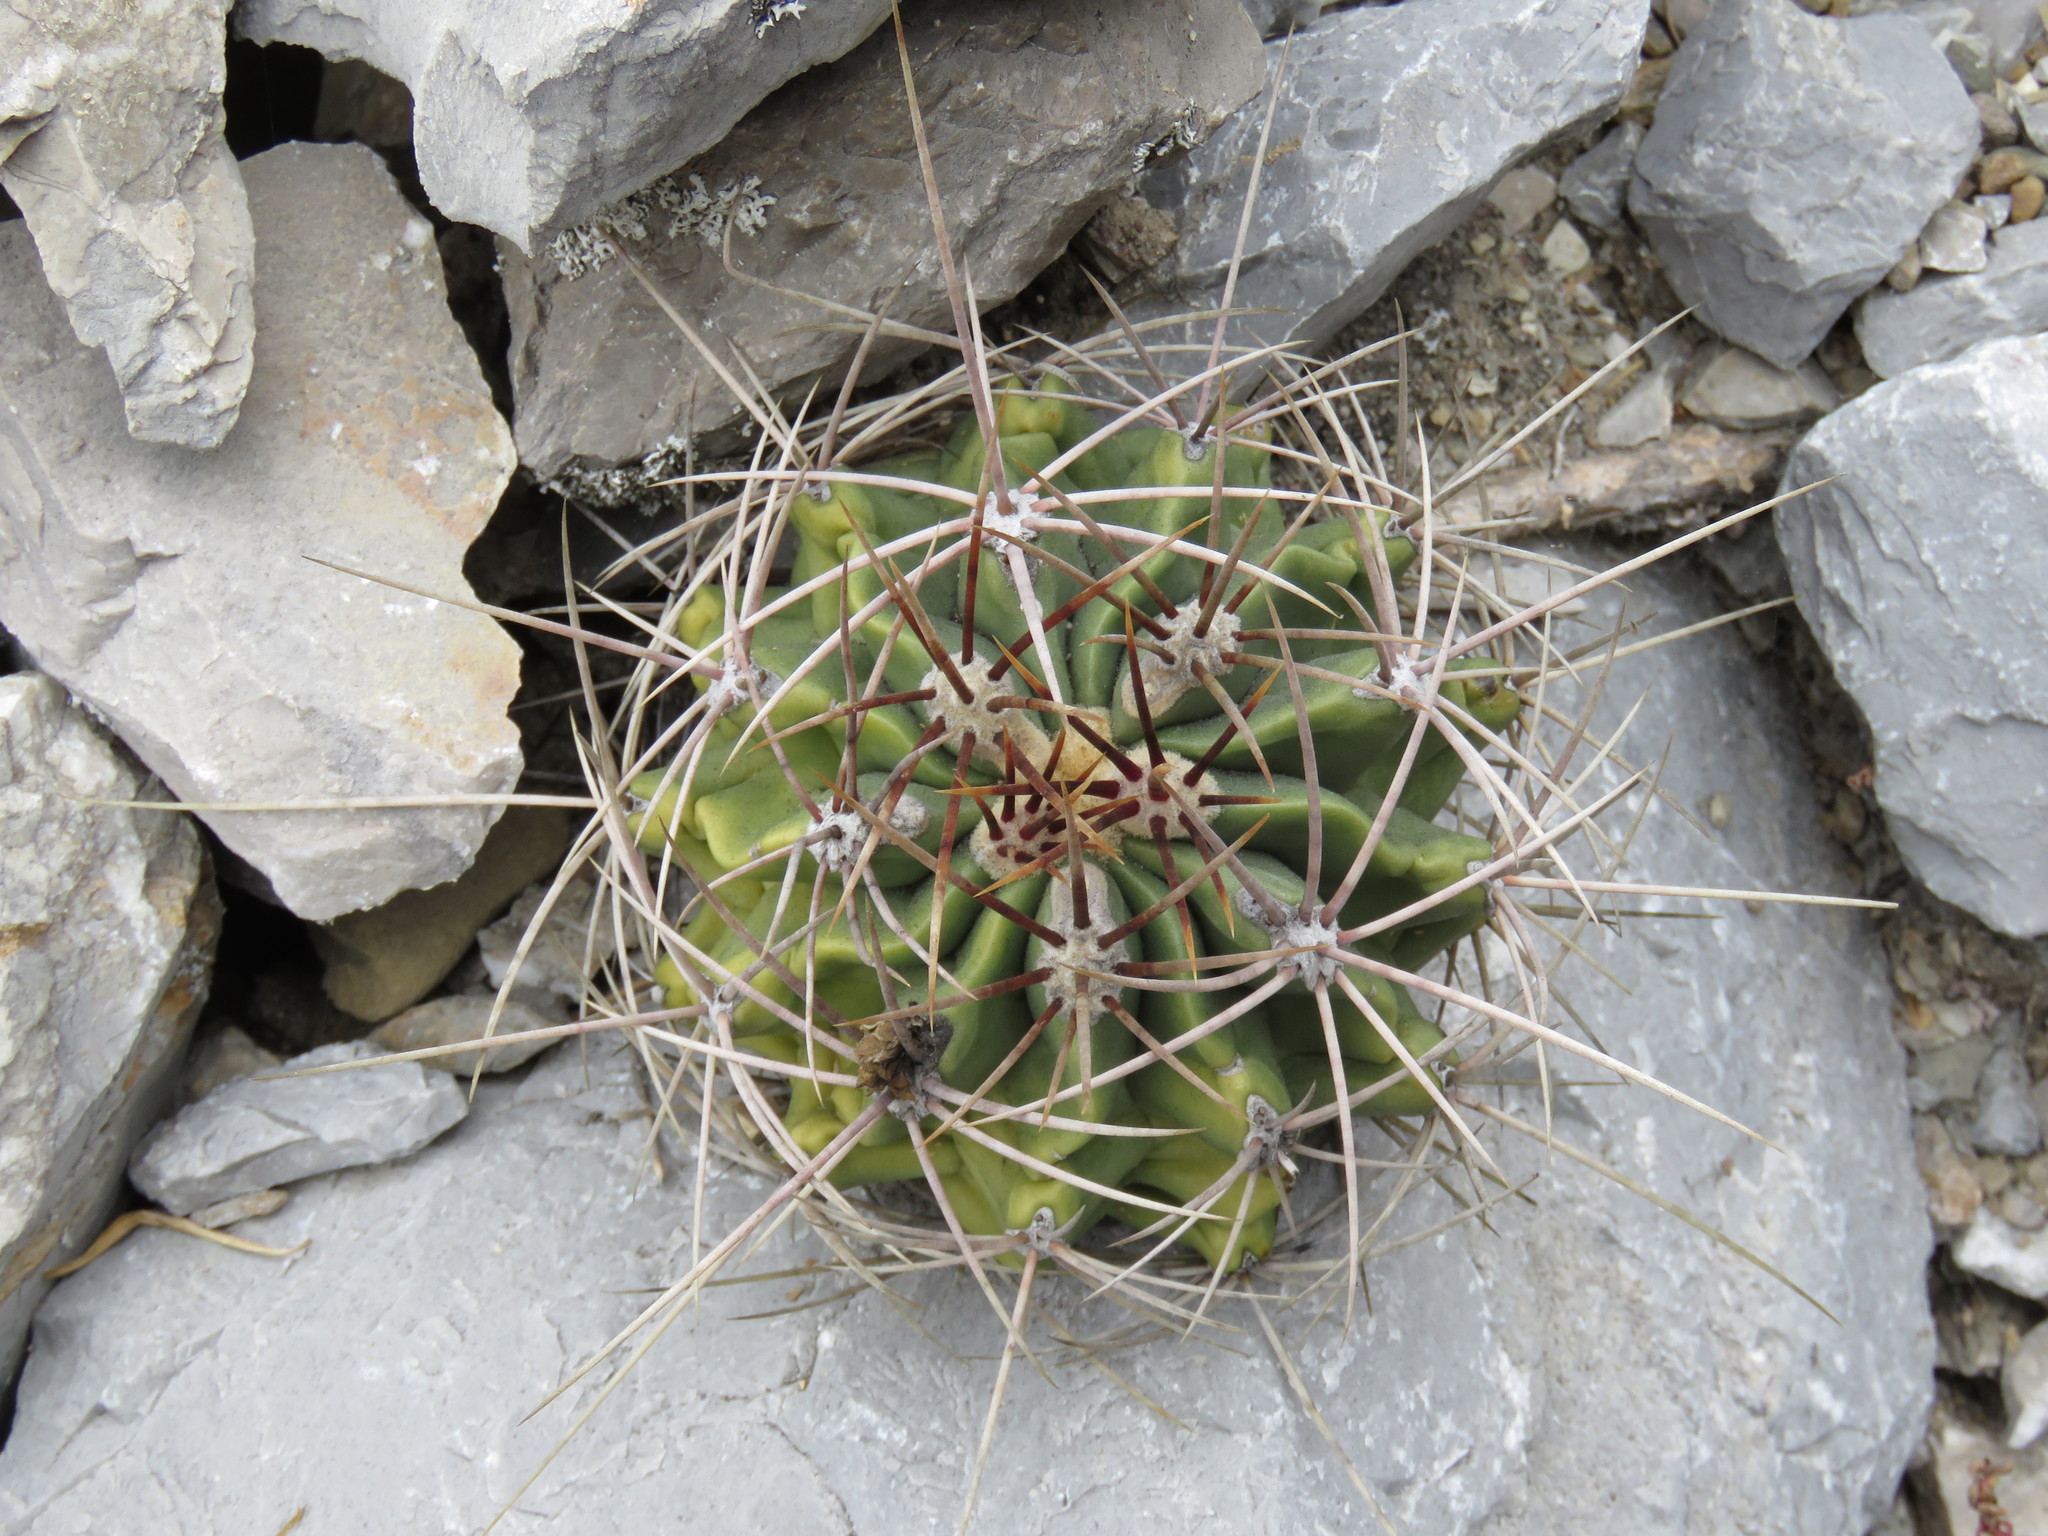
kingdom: Plantae
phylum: Tracheophyta
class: Magnoliopsida
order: Caryophyllales
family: Cactaceae
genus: Parrycactus
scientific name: Parrycactus echidne
